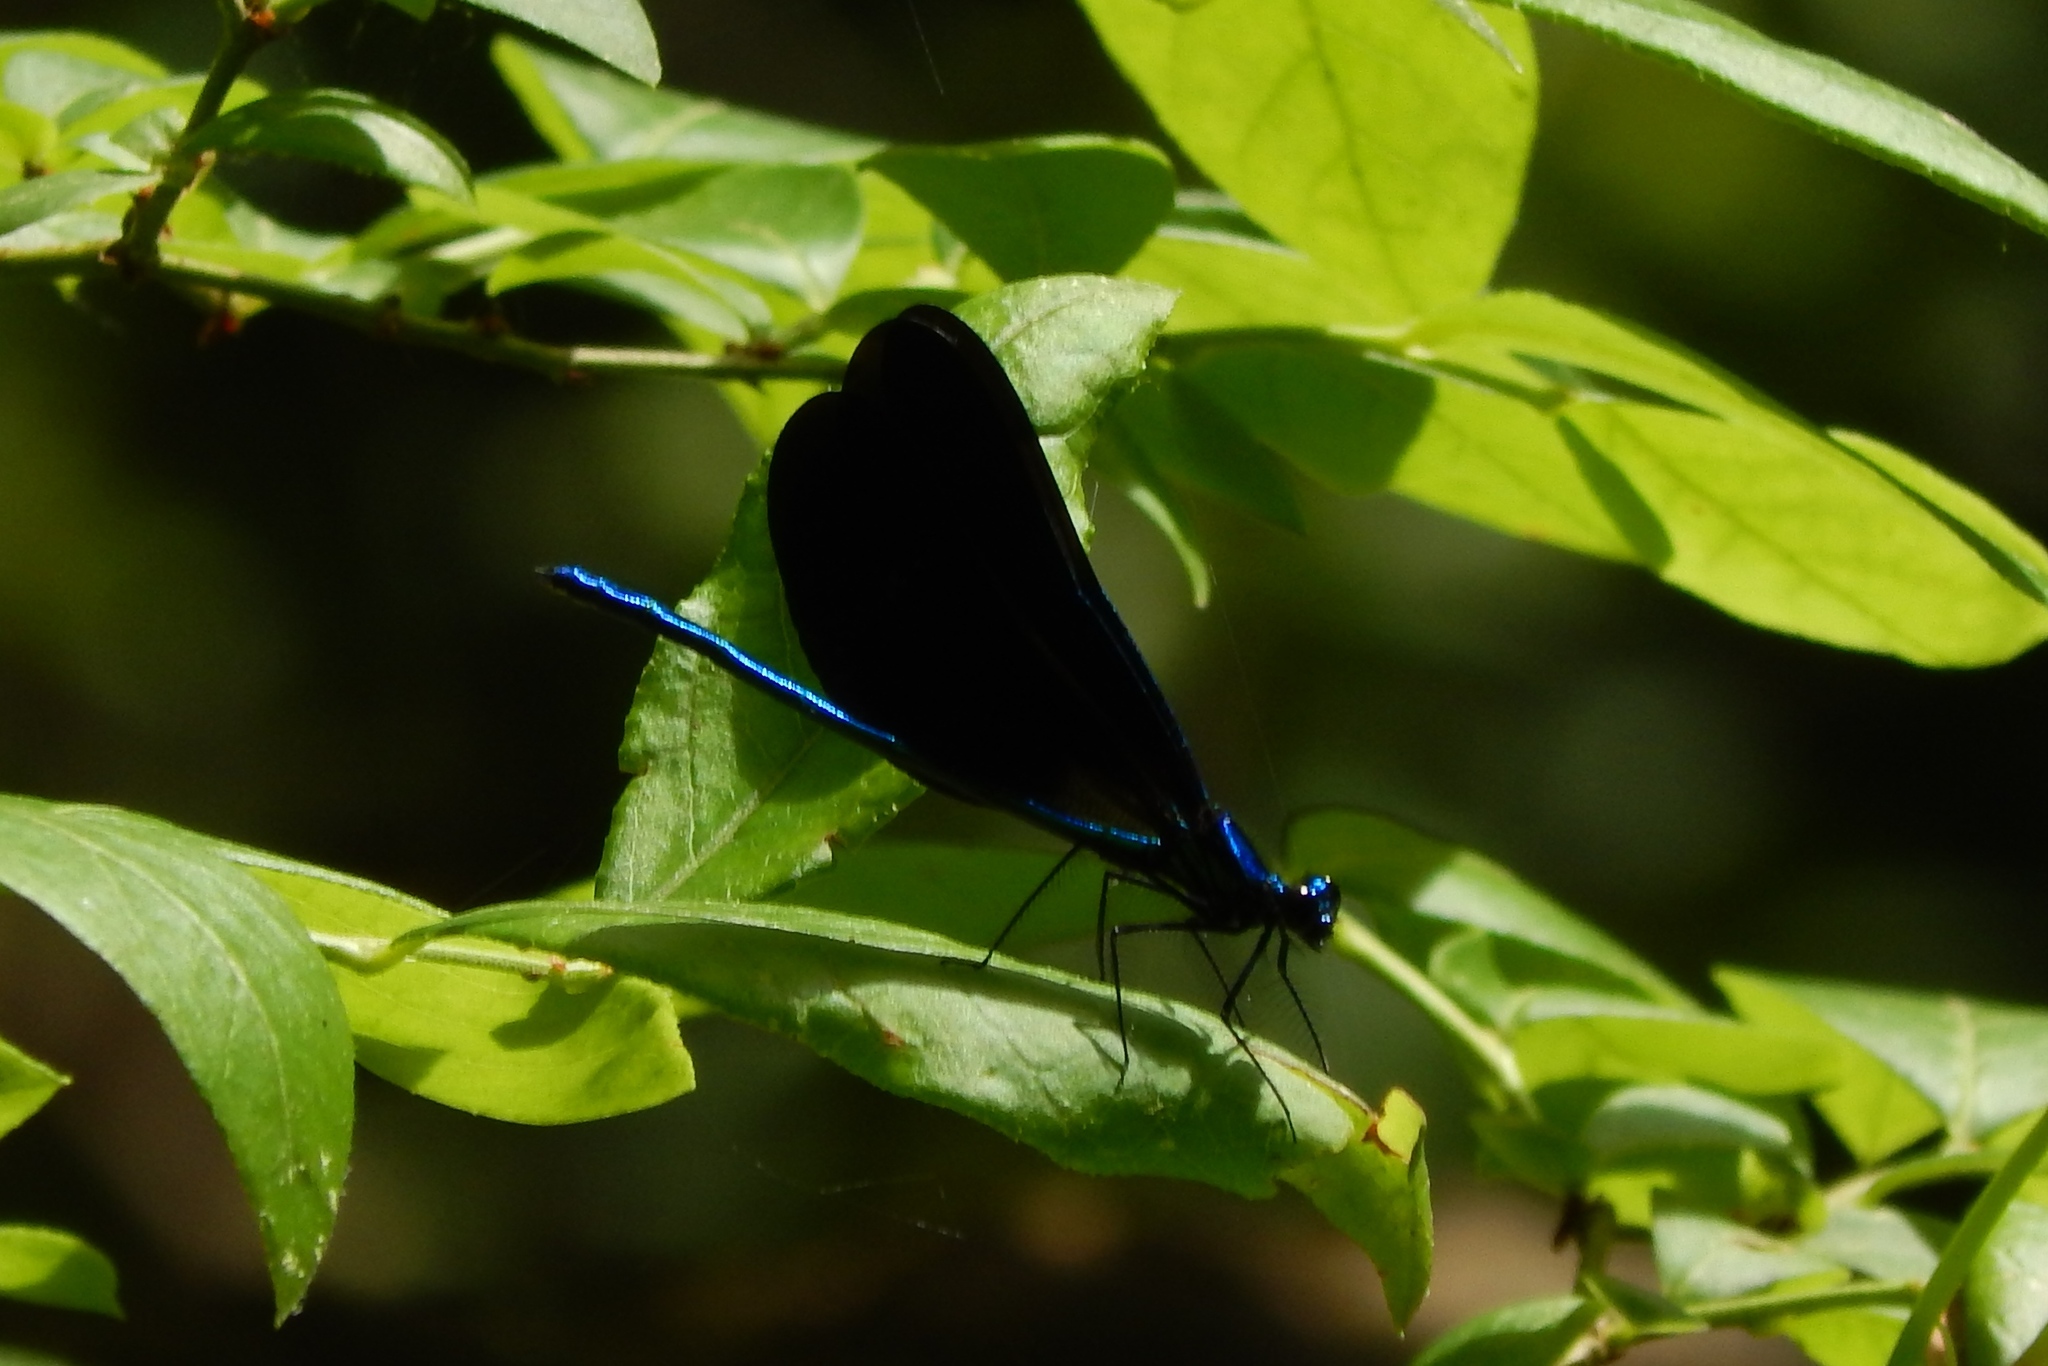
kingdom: Animalia
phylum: Arthropoda
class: Insecta
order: Odonata
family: Calopterygidae
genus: Calopteryx
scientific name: Calopteryx maculata
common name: Ebony jewelwing
